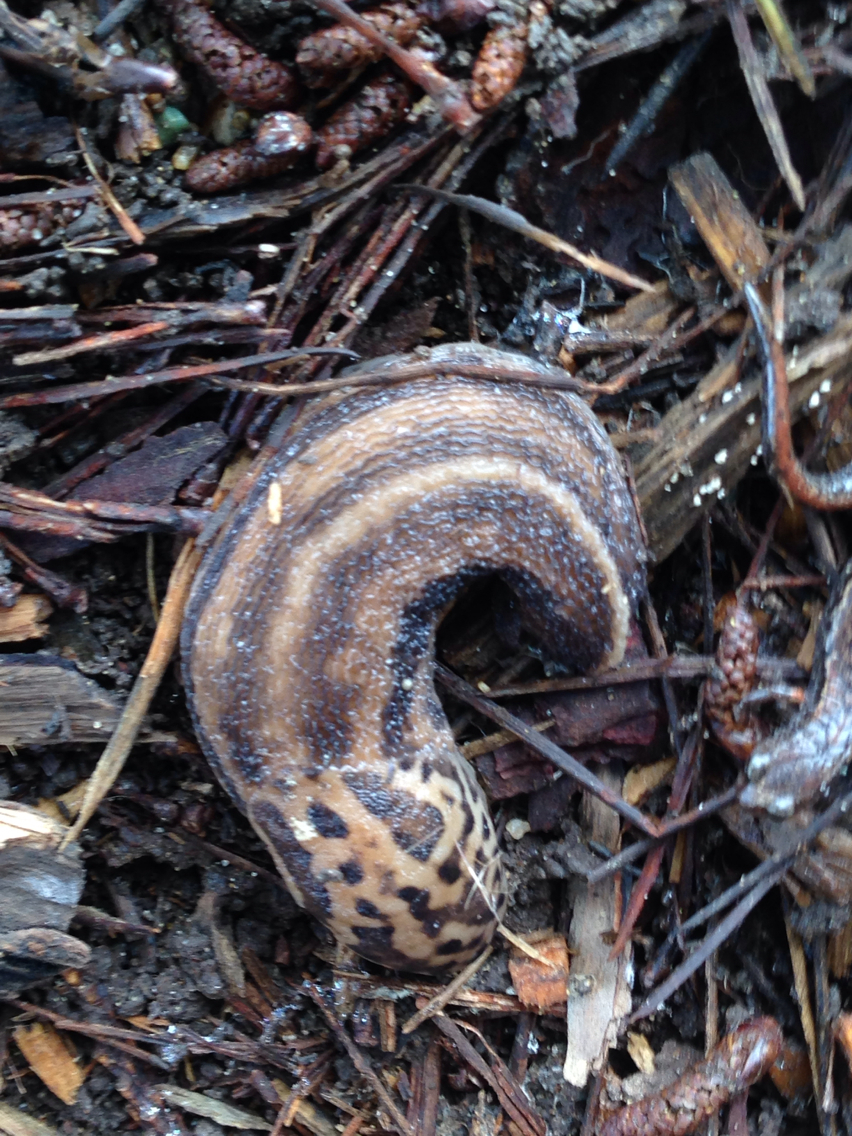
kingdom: Animalia
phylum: Mollusca
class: Gastropoda
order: Stylommatophora
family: Limacidae
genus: Limax
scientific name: Limax maximus
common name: Great grey slug
